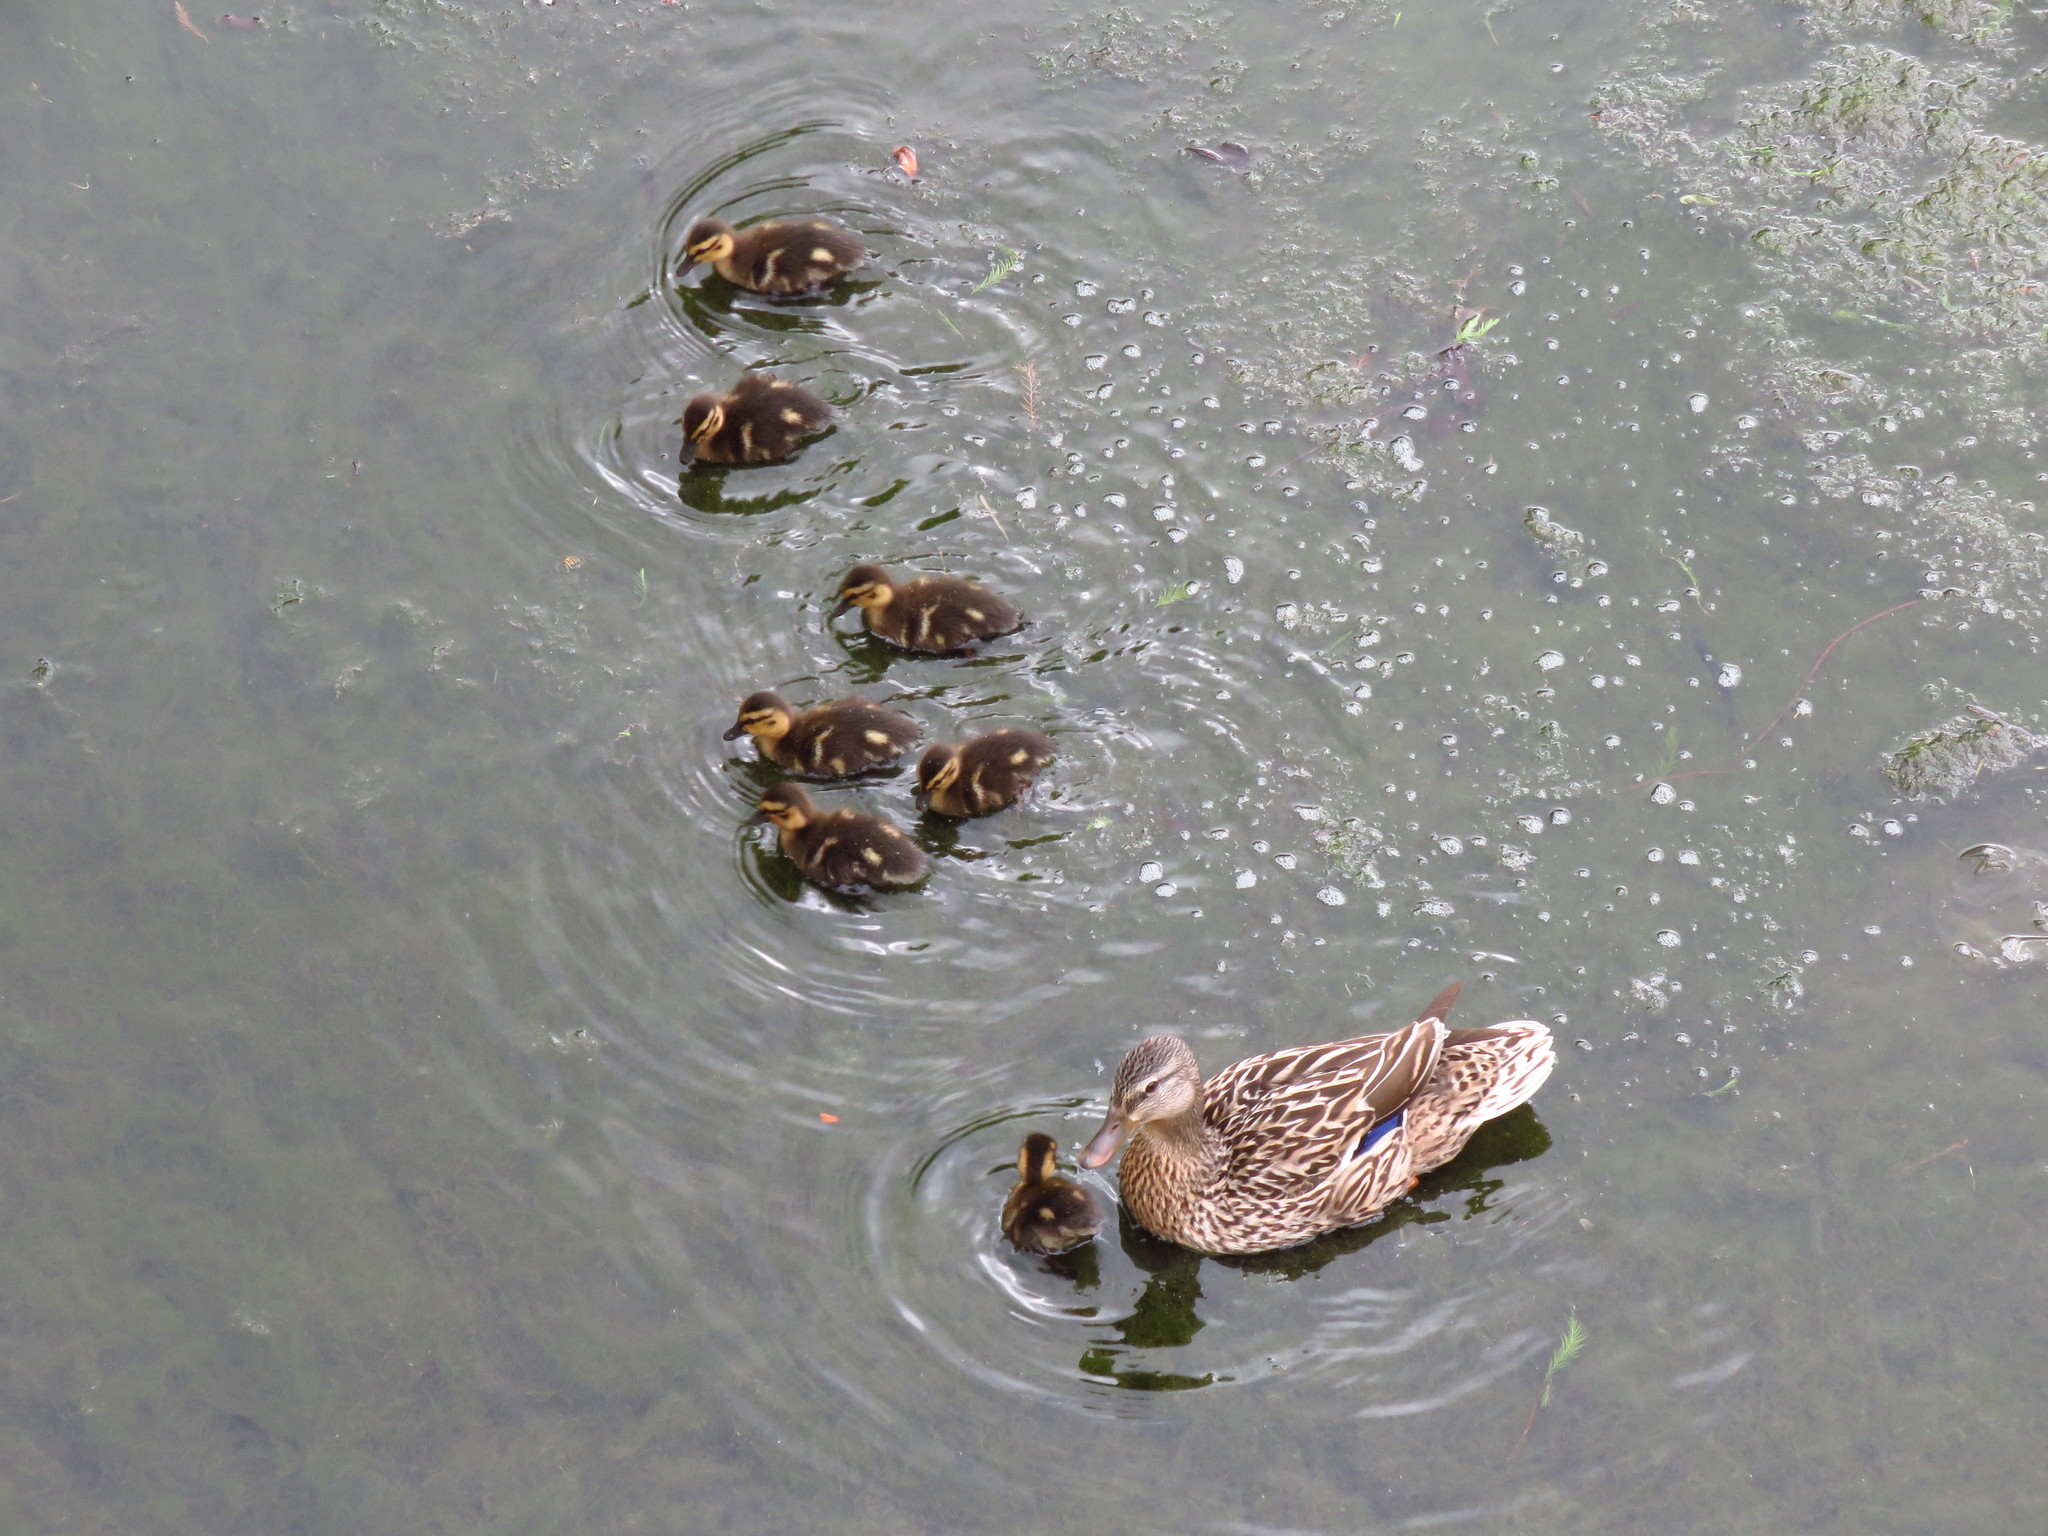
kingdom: Animalia
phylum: Chordata
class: Aves
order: Anseriformes
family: Anatidae
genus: Anas
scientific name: Anas platyrhynchos
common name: Mallard
